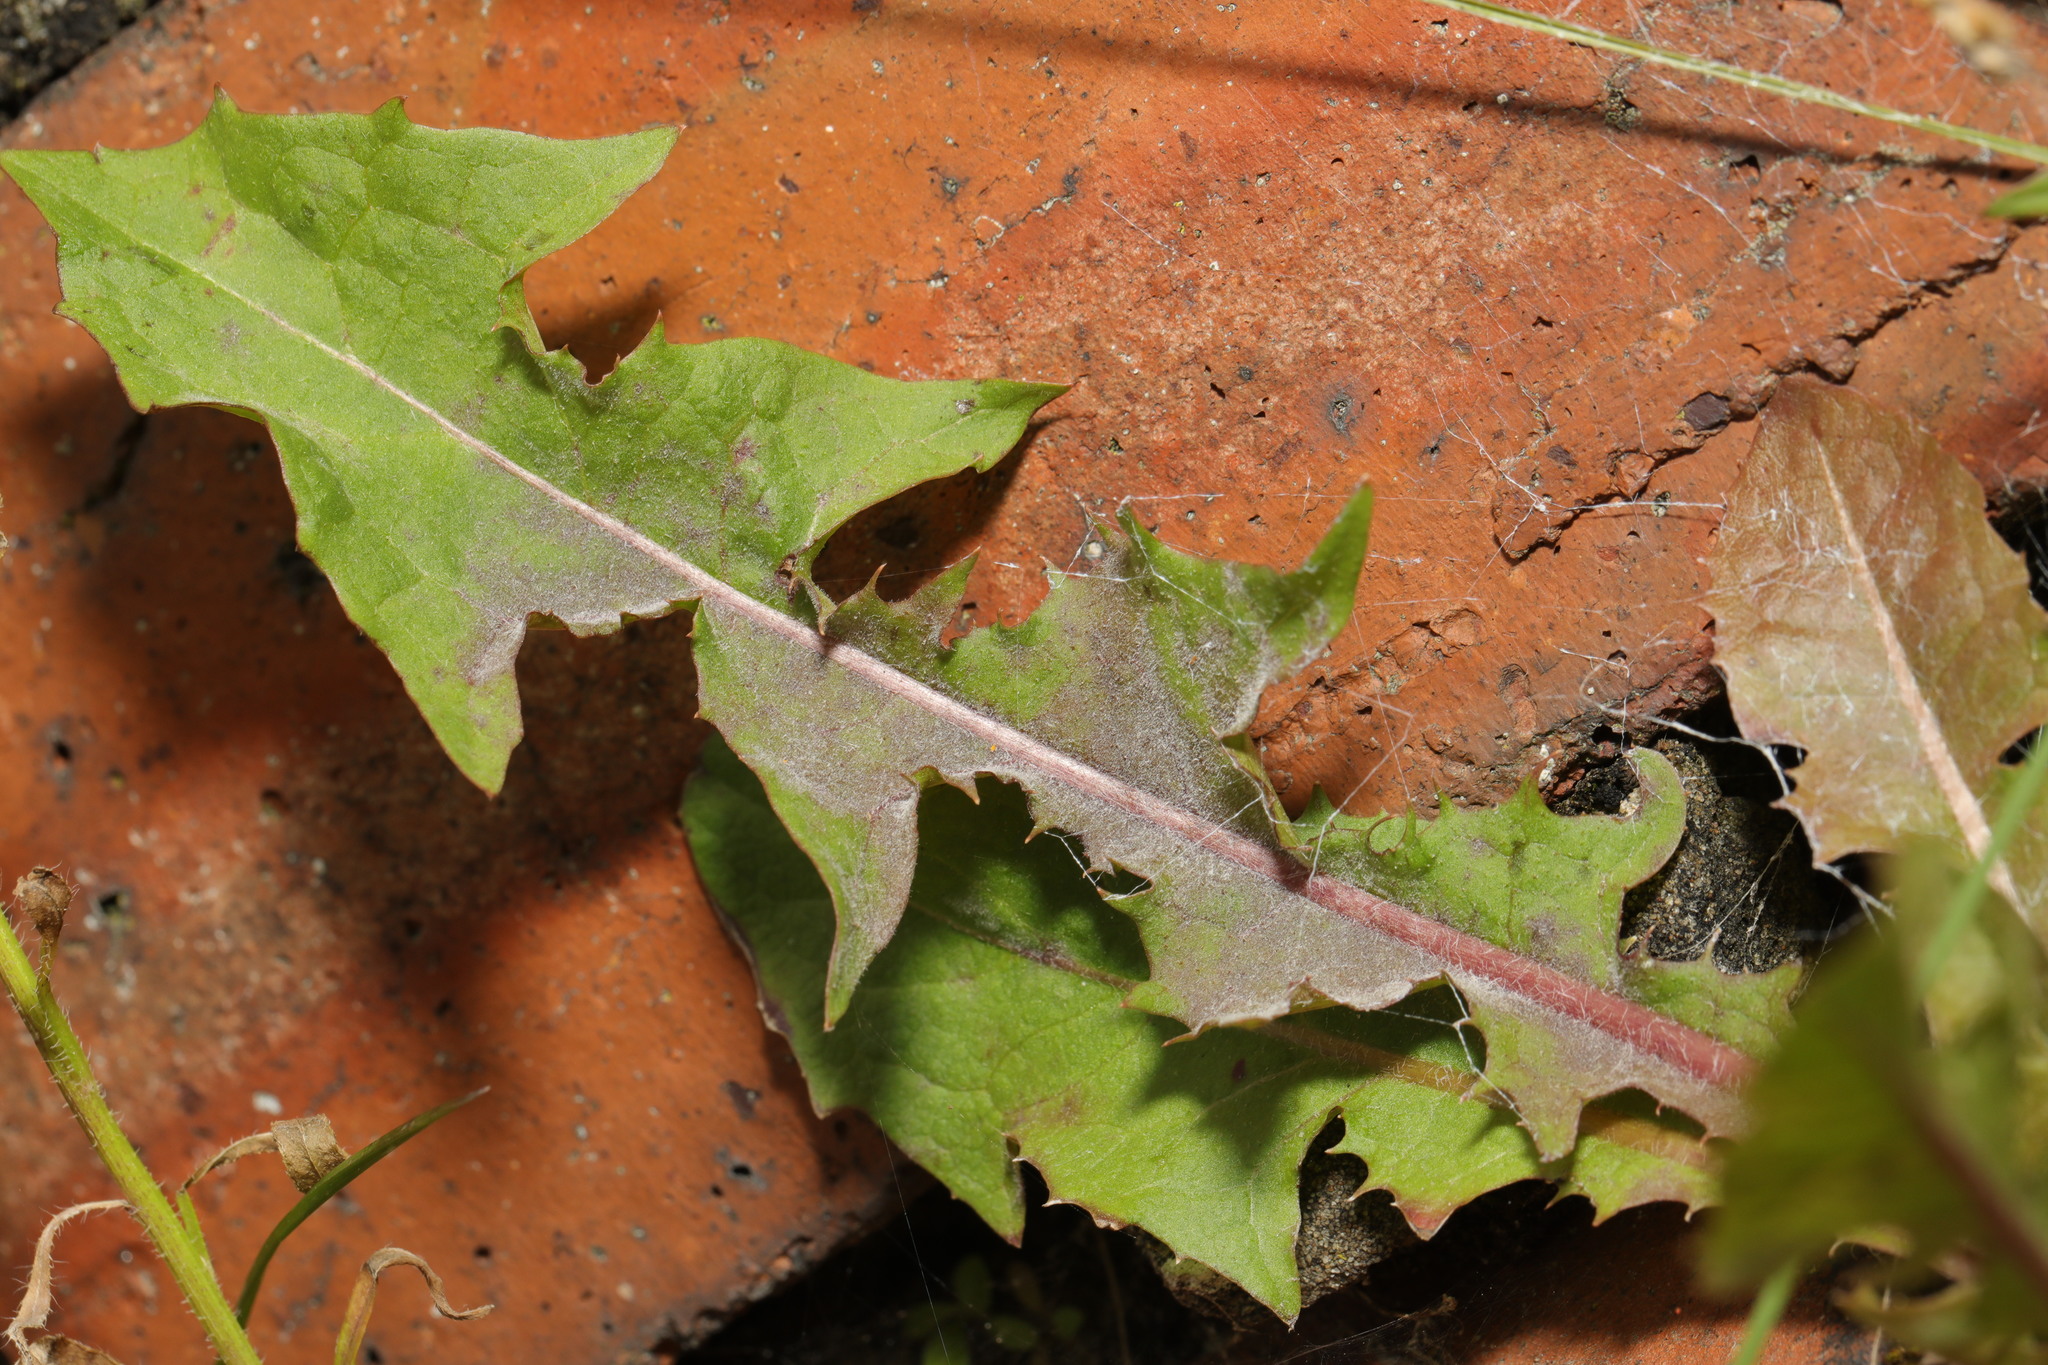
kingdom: Plantae
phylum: Tracheophyta
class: Magnoliopsida
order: Asterales
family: Asteraceae
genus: Taraxacum
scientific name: Taraxacum officinale
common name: Common dandelion
